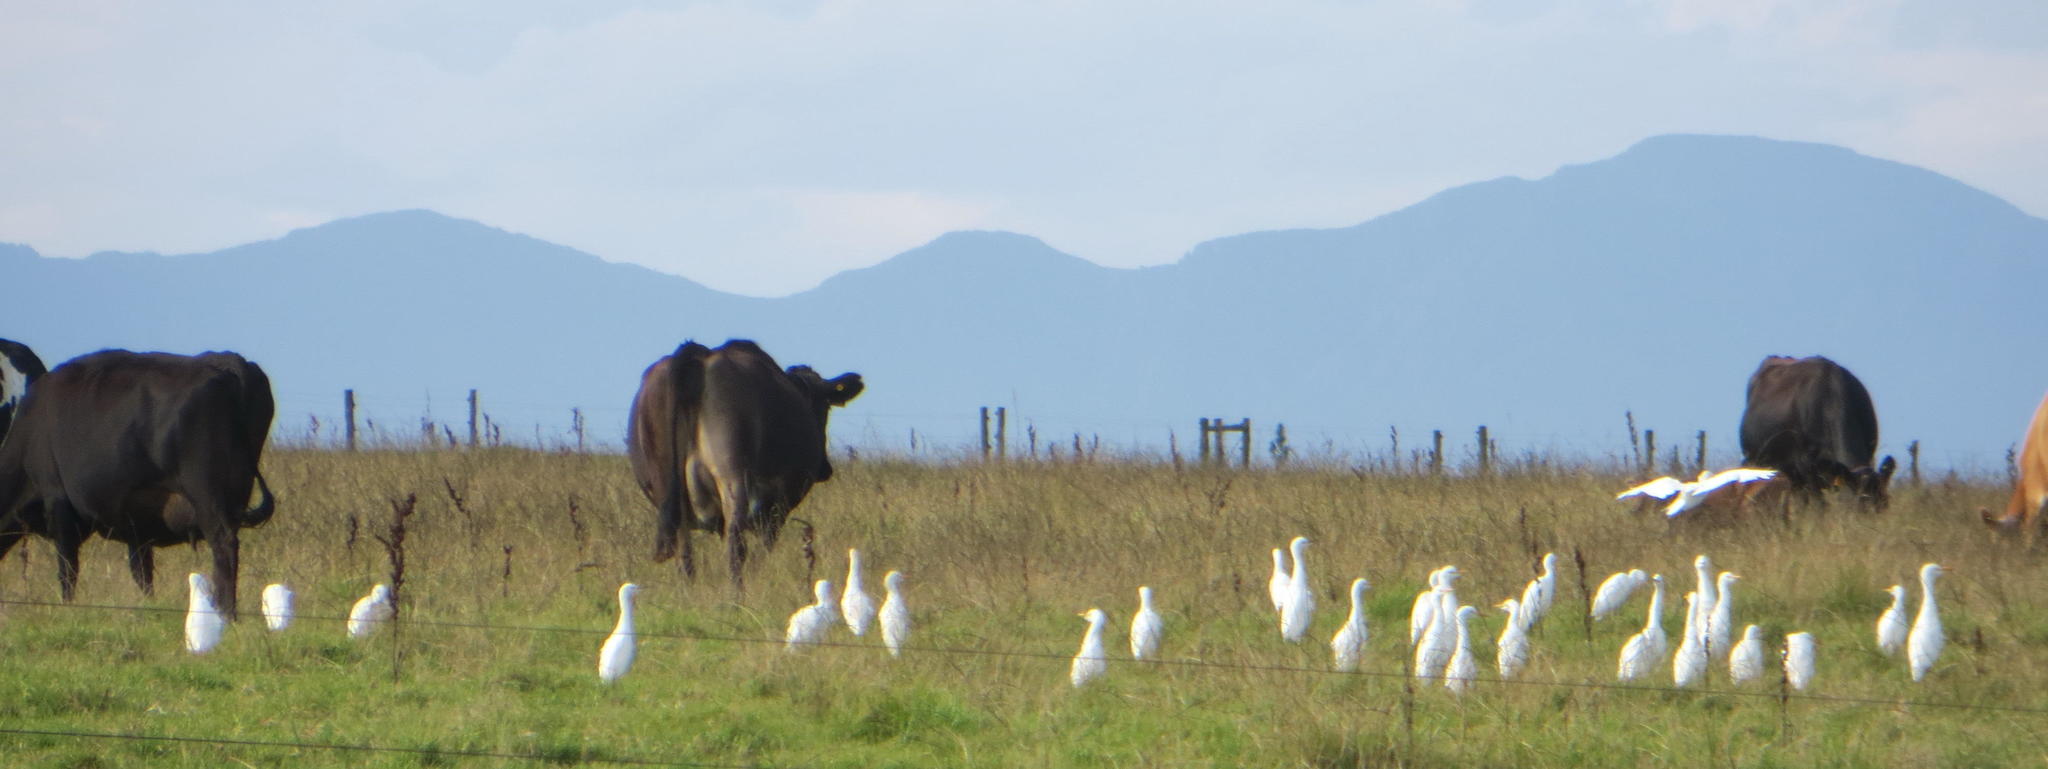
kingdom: Animalia
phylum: Chordata
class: Aves
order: Pelecaniformes
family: Ardeidae
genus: Bubulcus
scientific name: Bubulcus ibis
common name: Cattle egret
